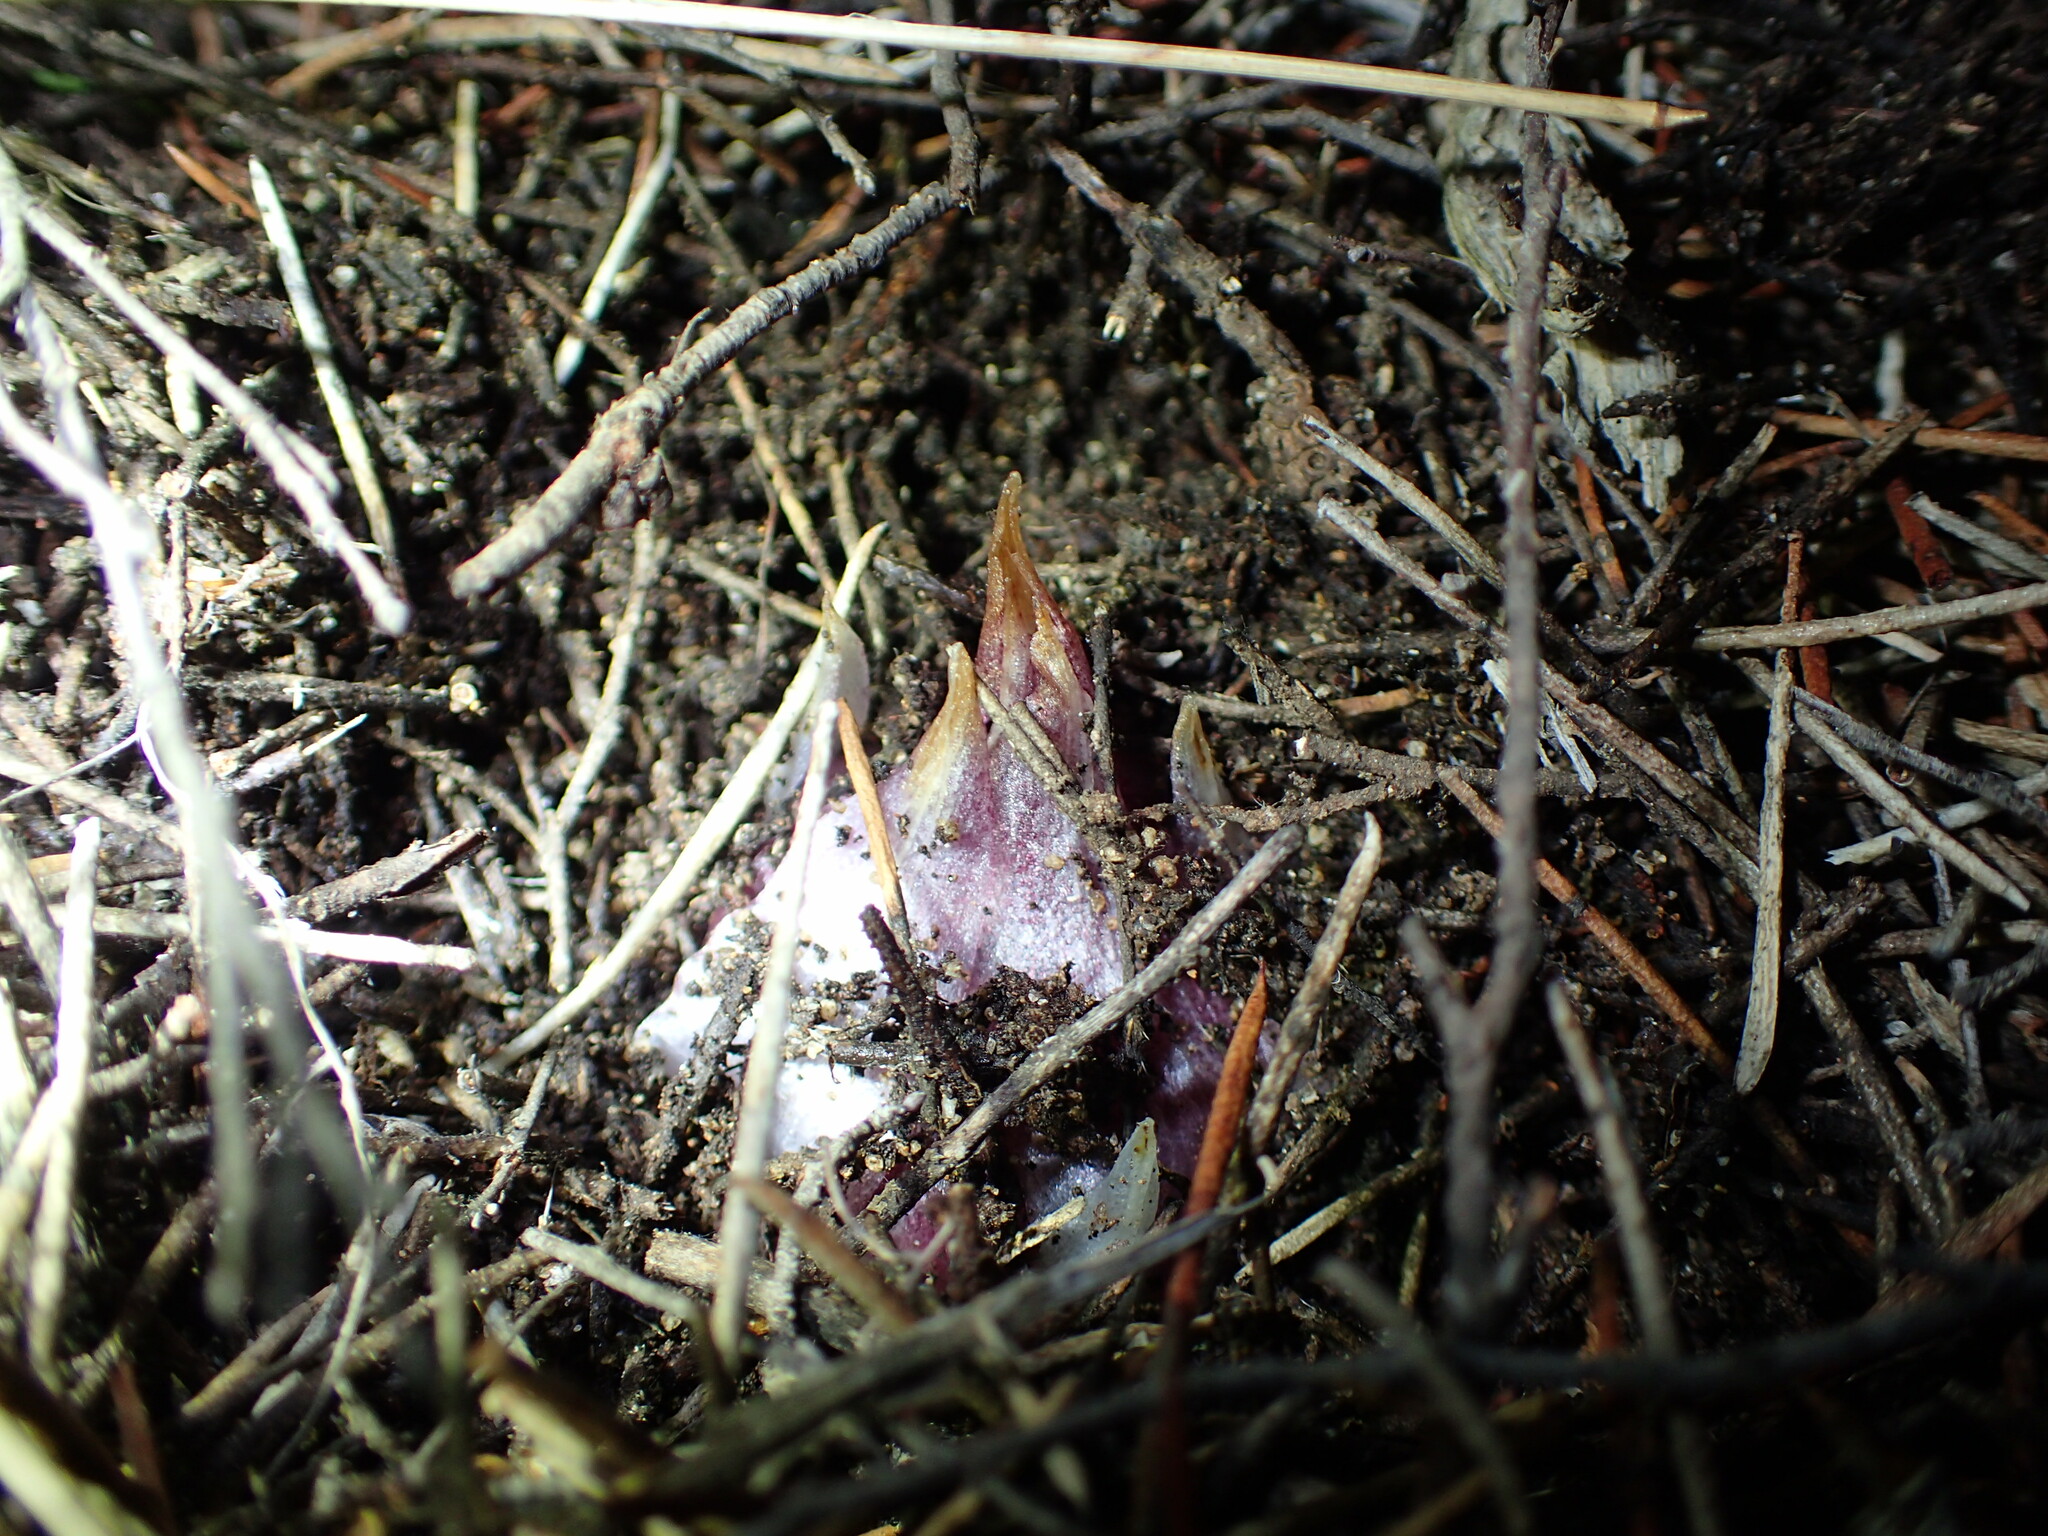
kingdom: Plantae
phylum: Tracheophyta
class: Liliopsida
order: Asparagales
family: Orchidaceae
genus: Rhizanthella
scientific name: Rhizanthella gardneri
